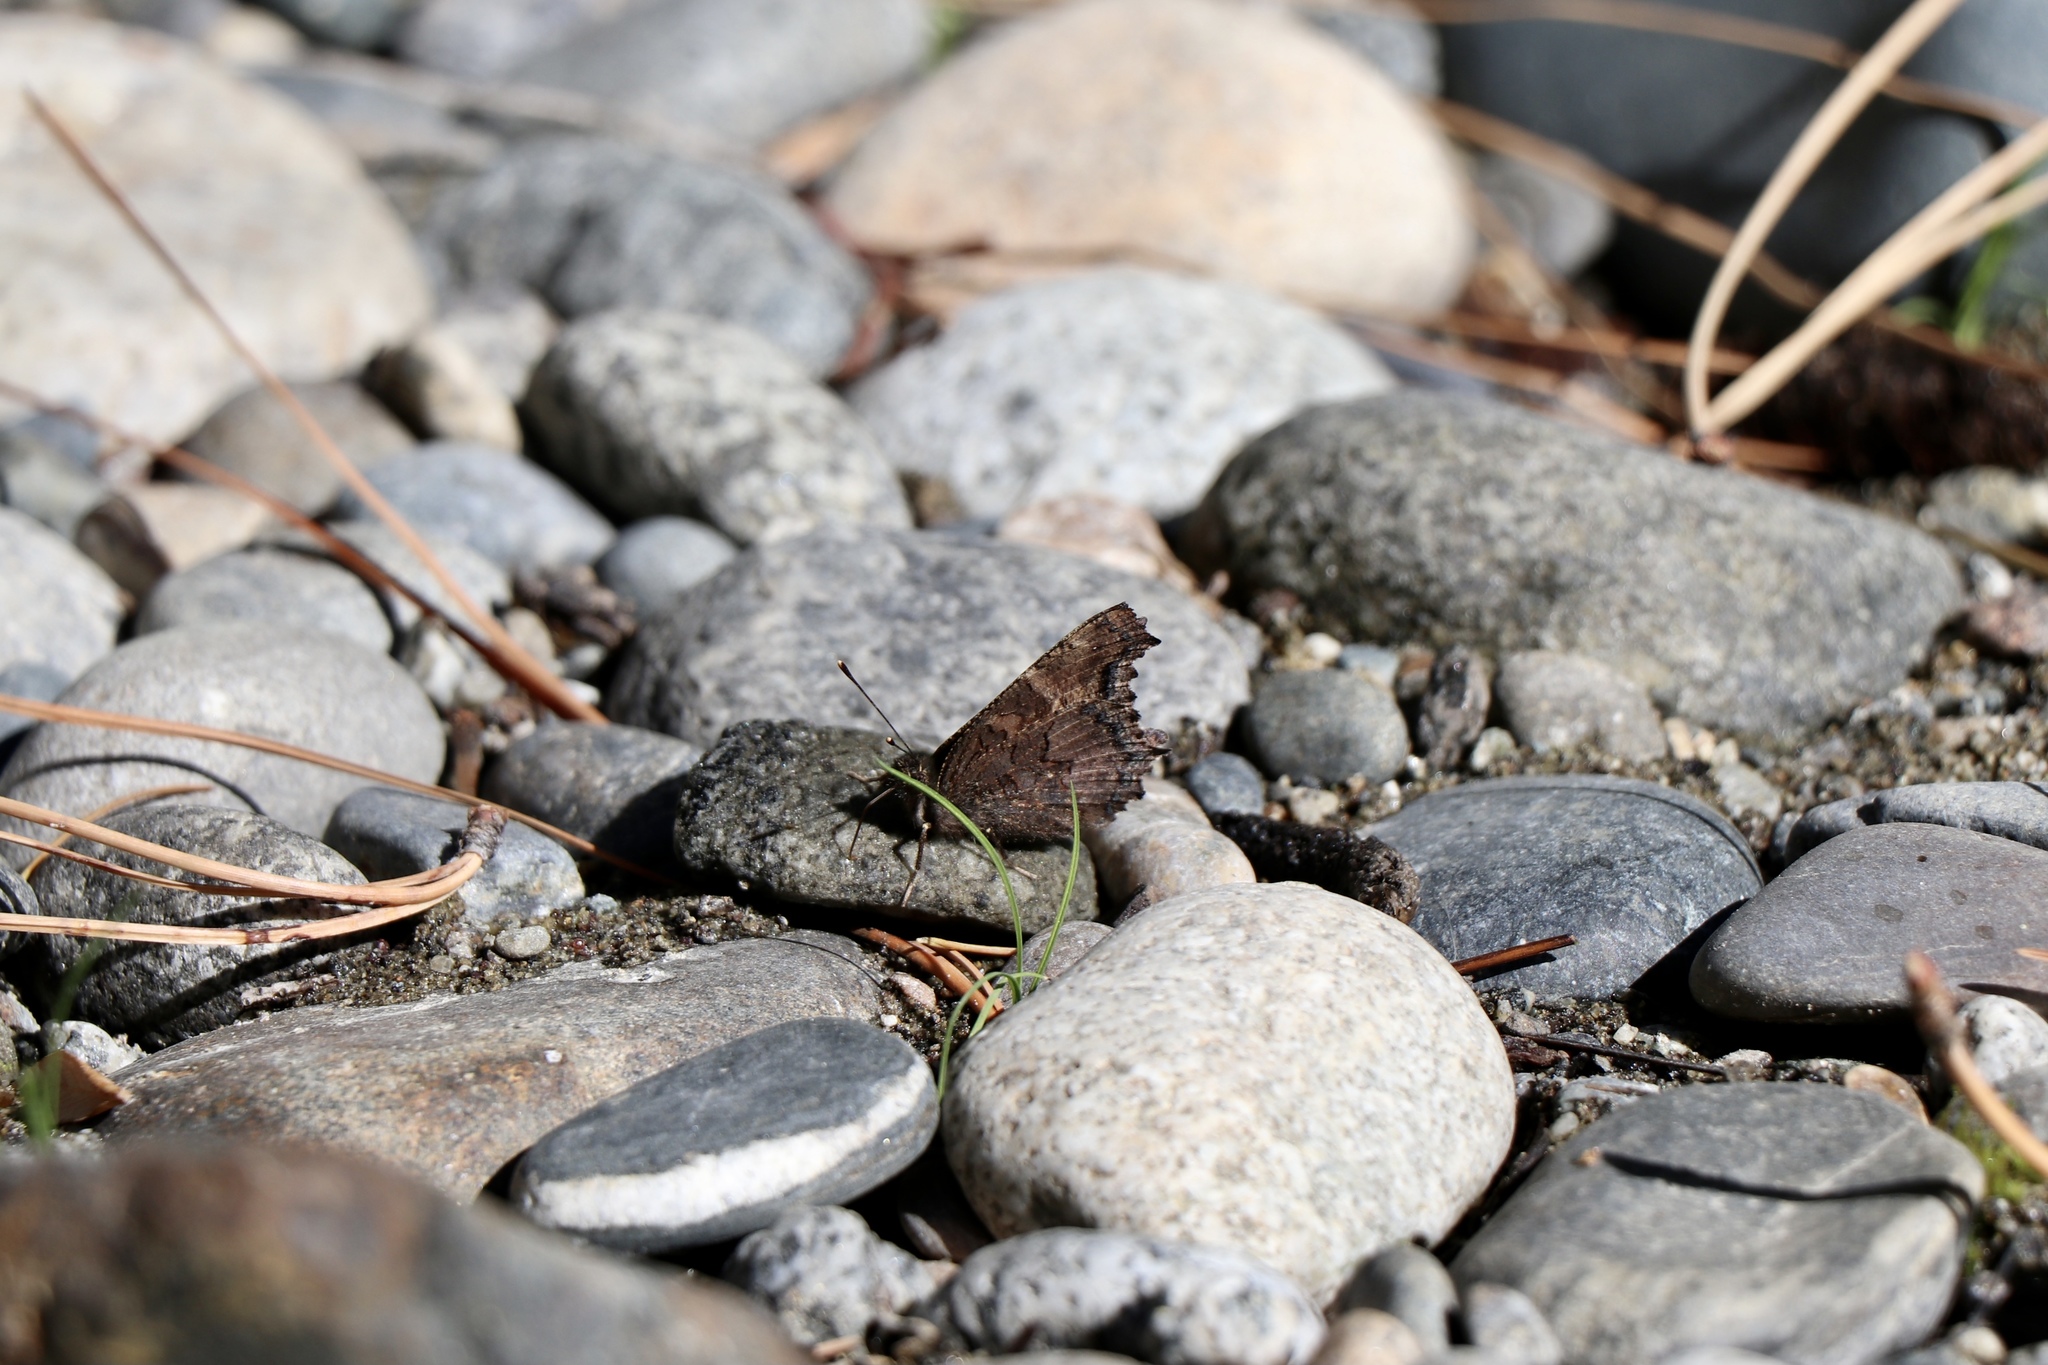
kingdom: Animalia
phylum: Arthropoda
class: Insecta
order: Lepidoptera
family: Nymphalidae
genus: Nymphalis
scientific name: Nymphalis californica
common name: California tortoiseshell
